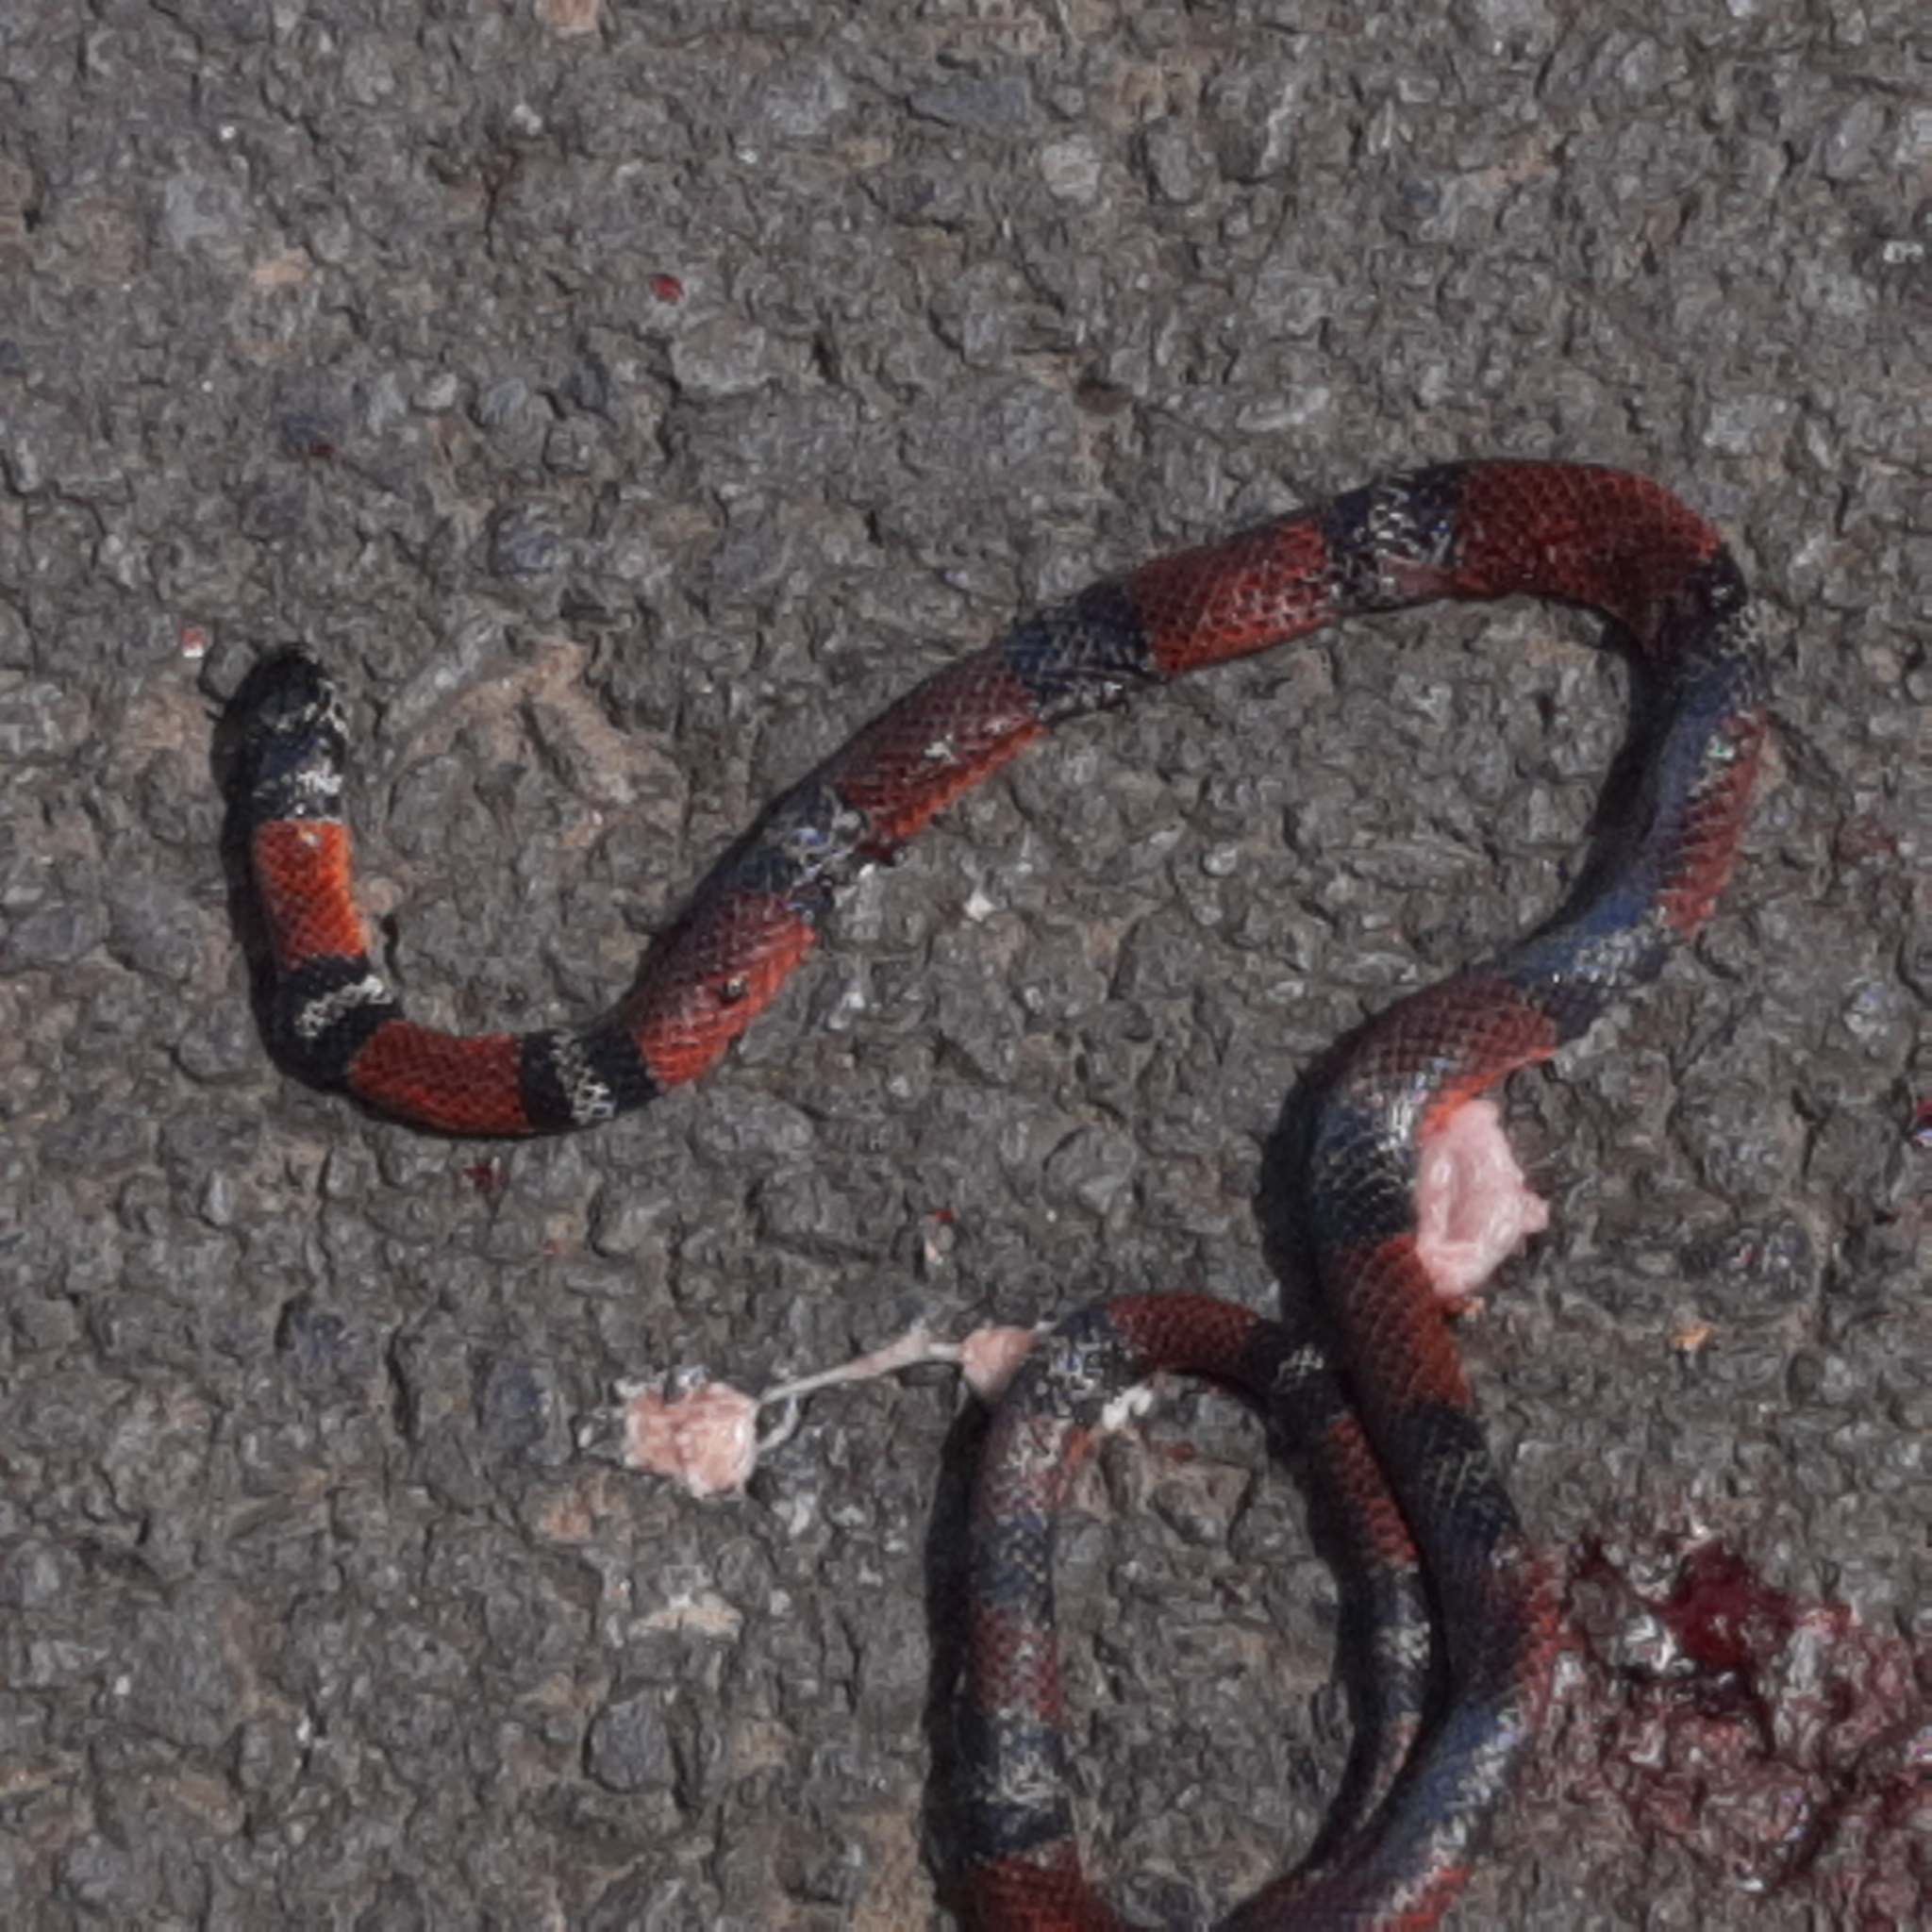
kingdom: Animalia
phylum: Chordata
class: Squamata
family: Colubridae
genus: Erythrolamprus
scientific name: Erythrolamprus bizona
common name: Double-banded coral snake mimic
